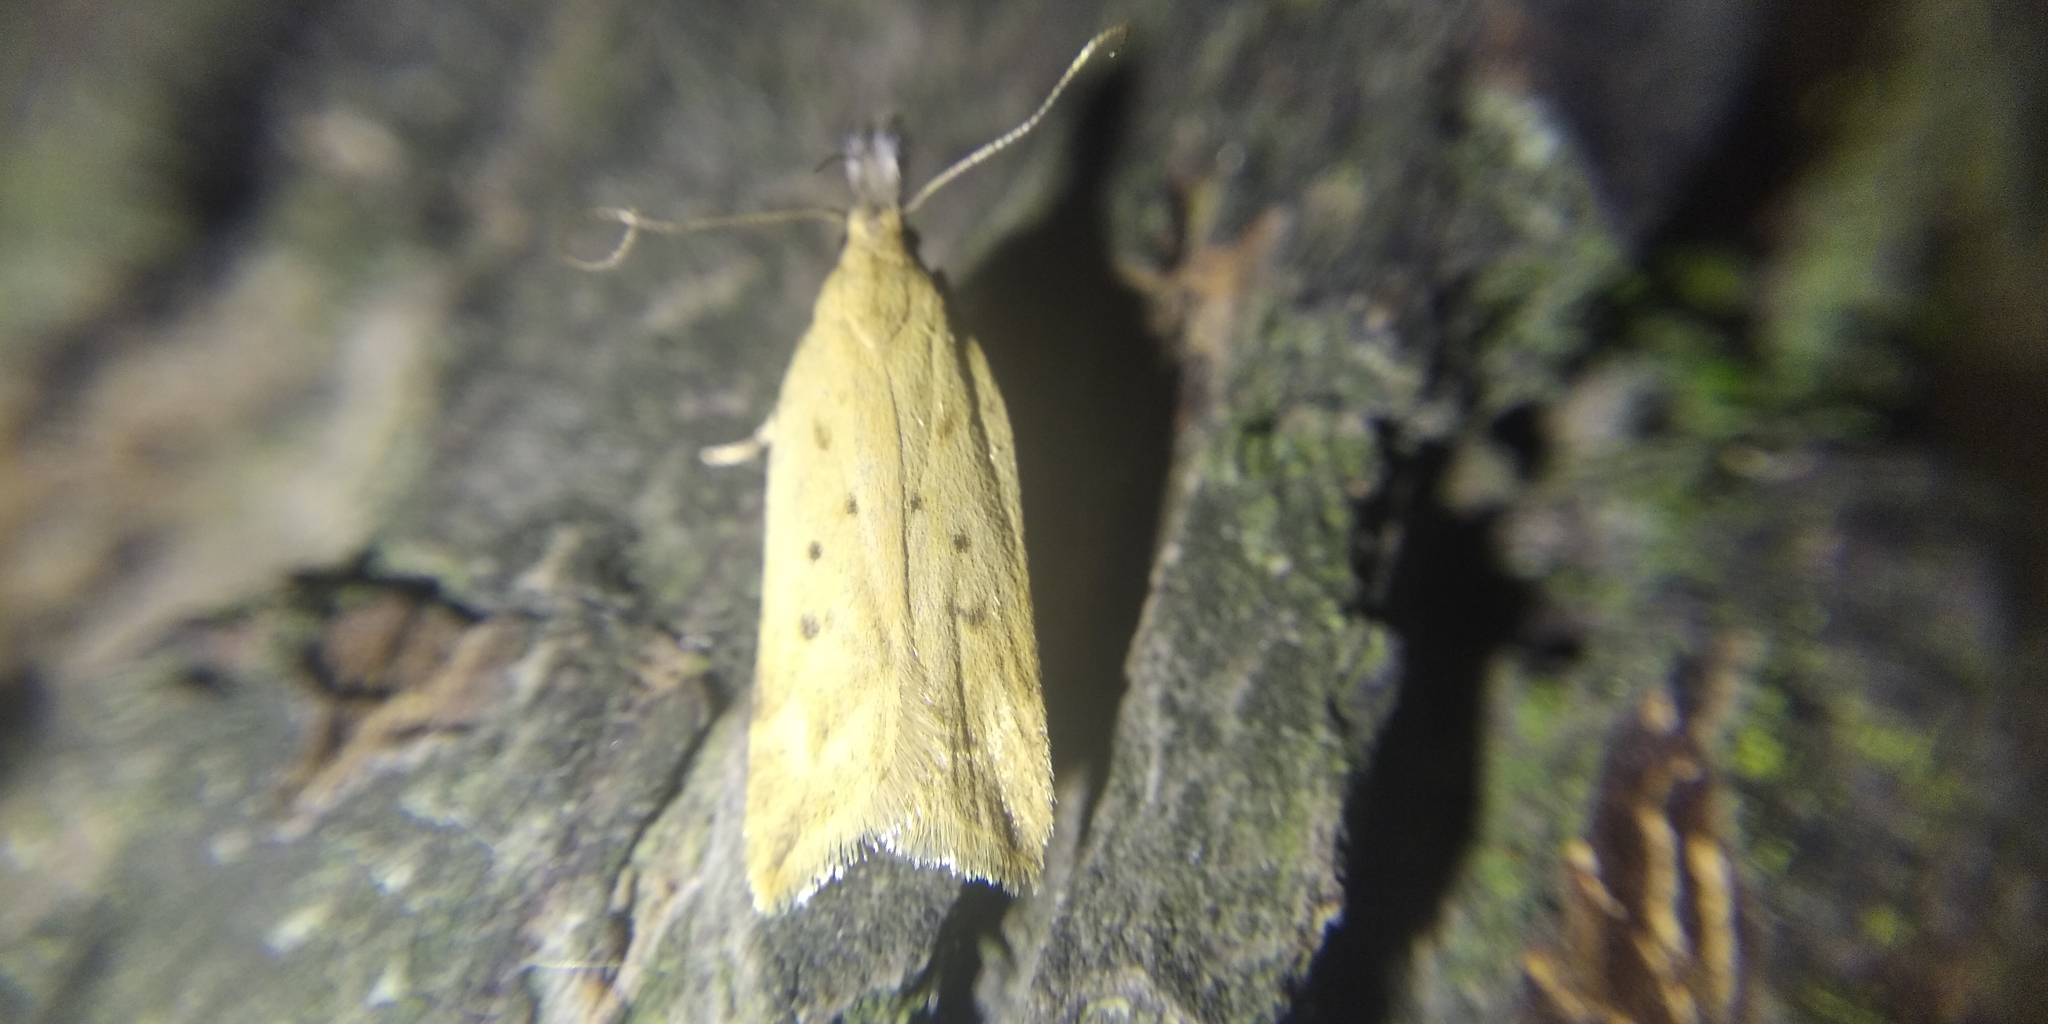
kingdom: Animalia
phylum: Arthropoda
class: Insecta
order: Lepidoptera
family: Gelechiidae
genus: Dichomeris
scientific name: Dichomeris limosellus
